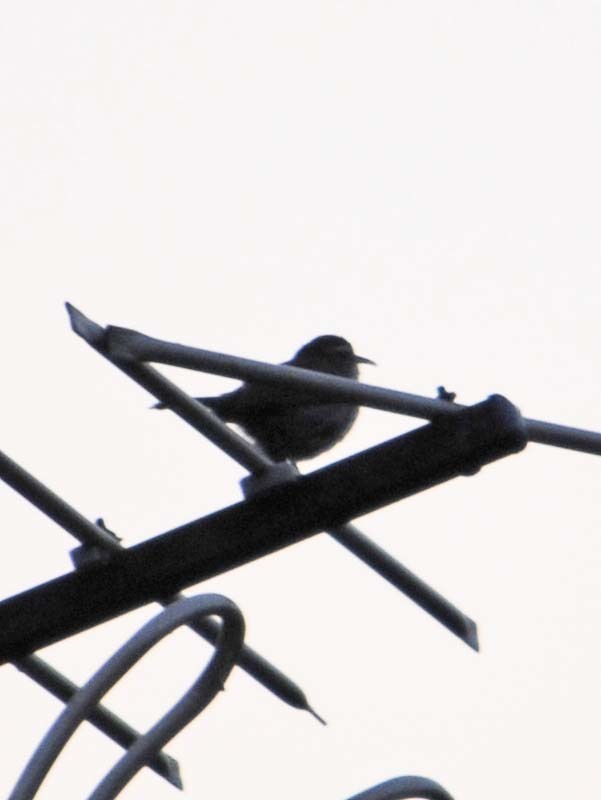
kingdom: Animalia
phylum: Chordata
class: Aves
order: Passeriformes
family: Troglodytidae
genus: Thryomanes
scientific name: Thryomanes bewickii
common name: Bewick's wren
